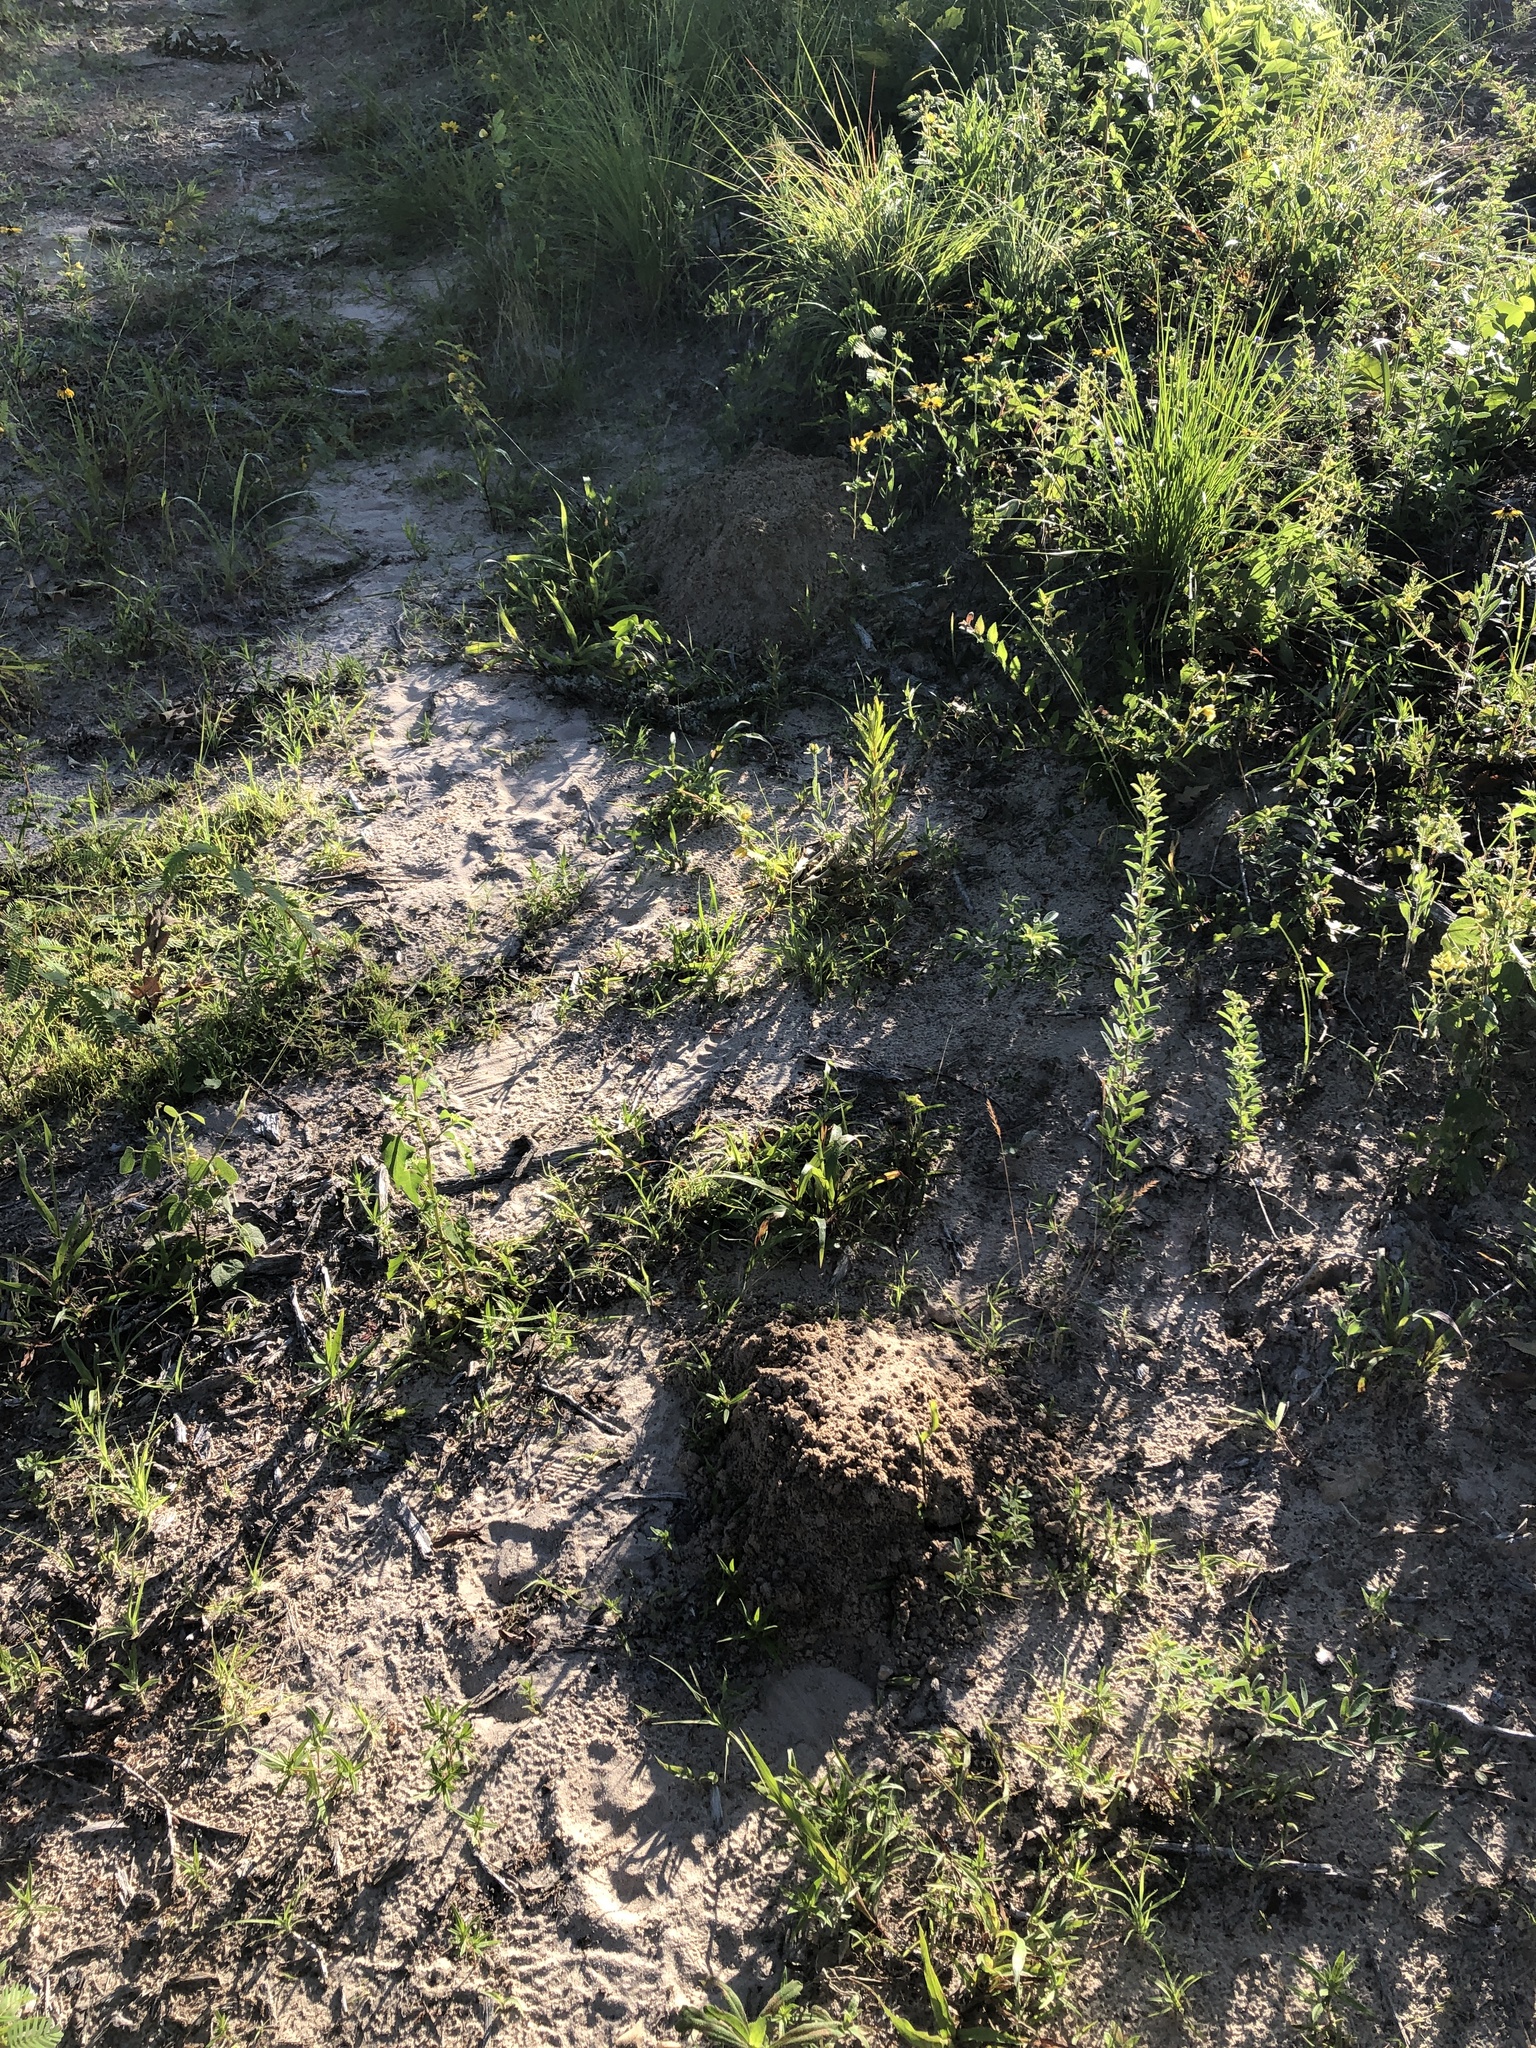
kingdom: Animalia
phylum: Chordata
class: Mammalia
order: Rodentia
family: Geomyidae
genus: Geomys
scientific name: Geomys breviceps
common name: Baird's pocket gopher
